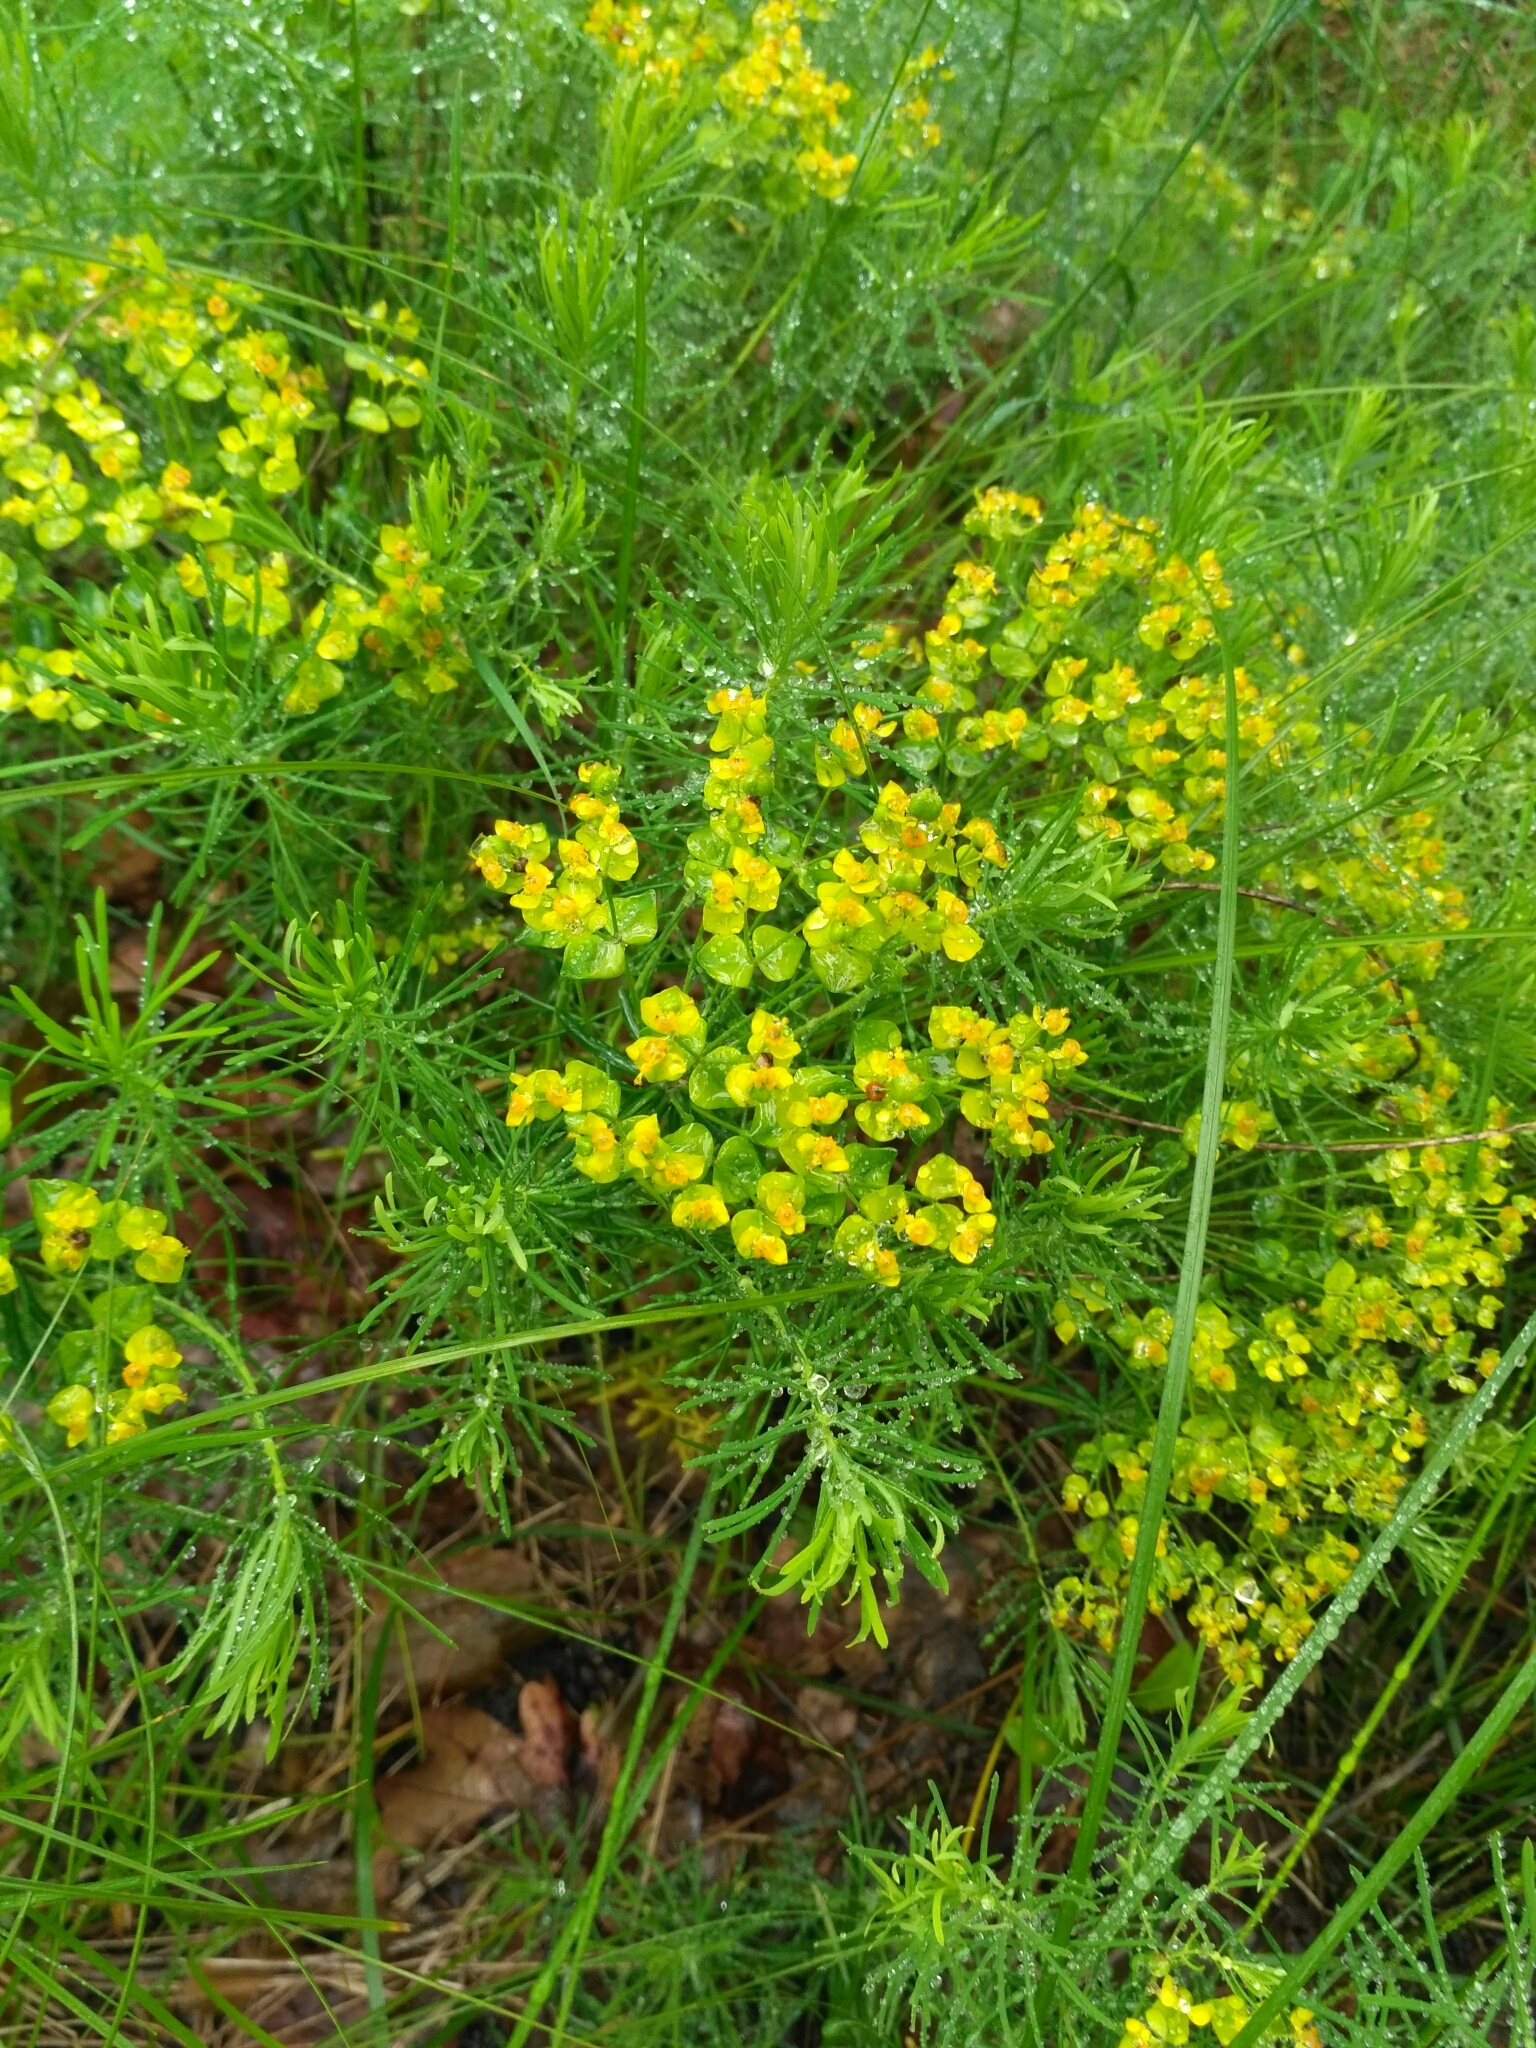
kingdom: Plantae
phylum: Tracheophyta
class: Magnoliopsida
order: Malpighiales
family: Euphorbiaceae
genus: Euphorbia
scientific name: Euphorbia cyparissias
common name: Cypress spurge
